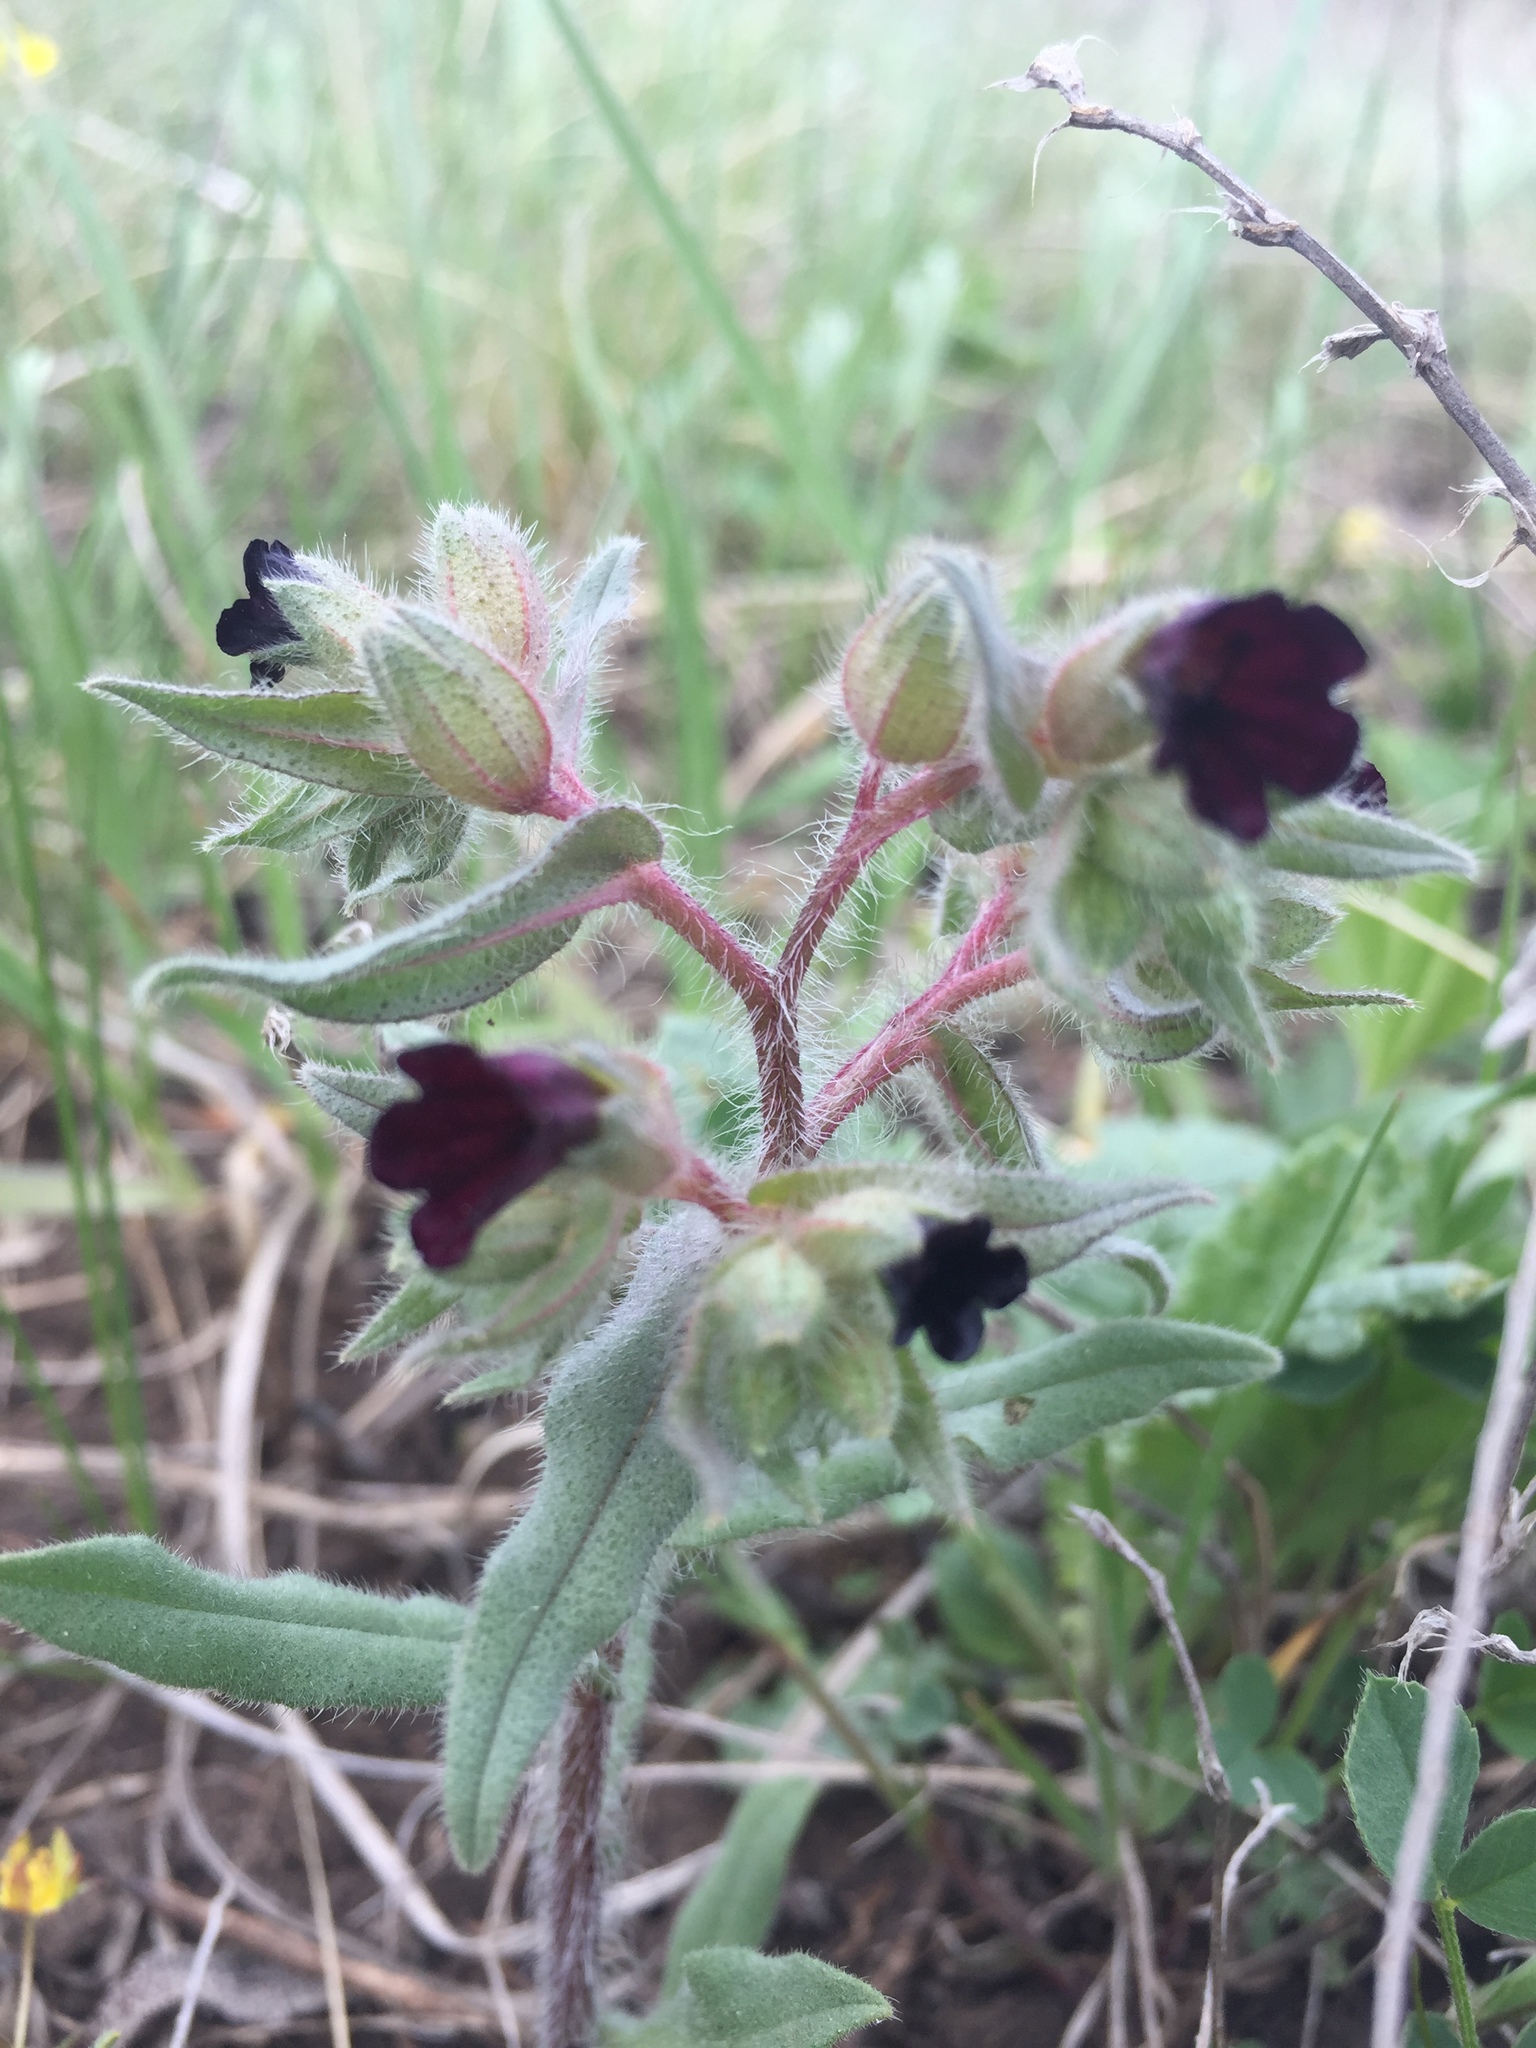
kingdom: Plantae
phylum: Tracheophyta
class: Magnoliopsida
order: Boraginales
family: Boraginaceae
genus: Nonea
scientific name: Nonea pulla
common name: Brown nonea
